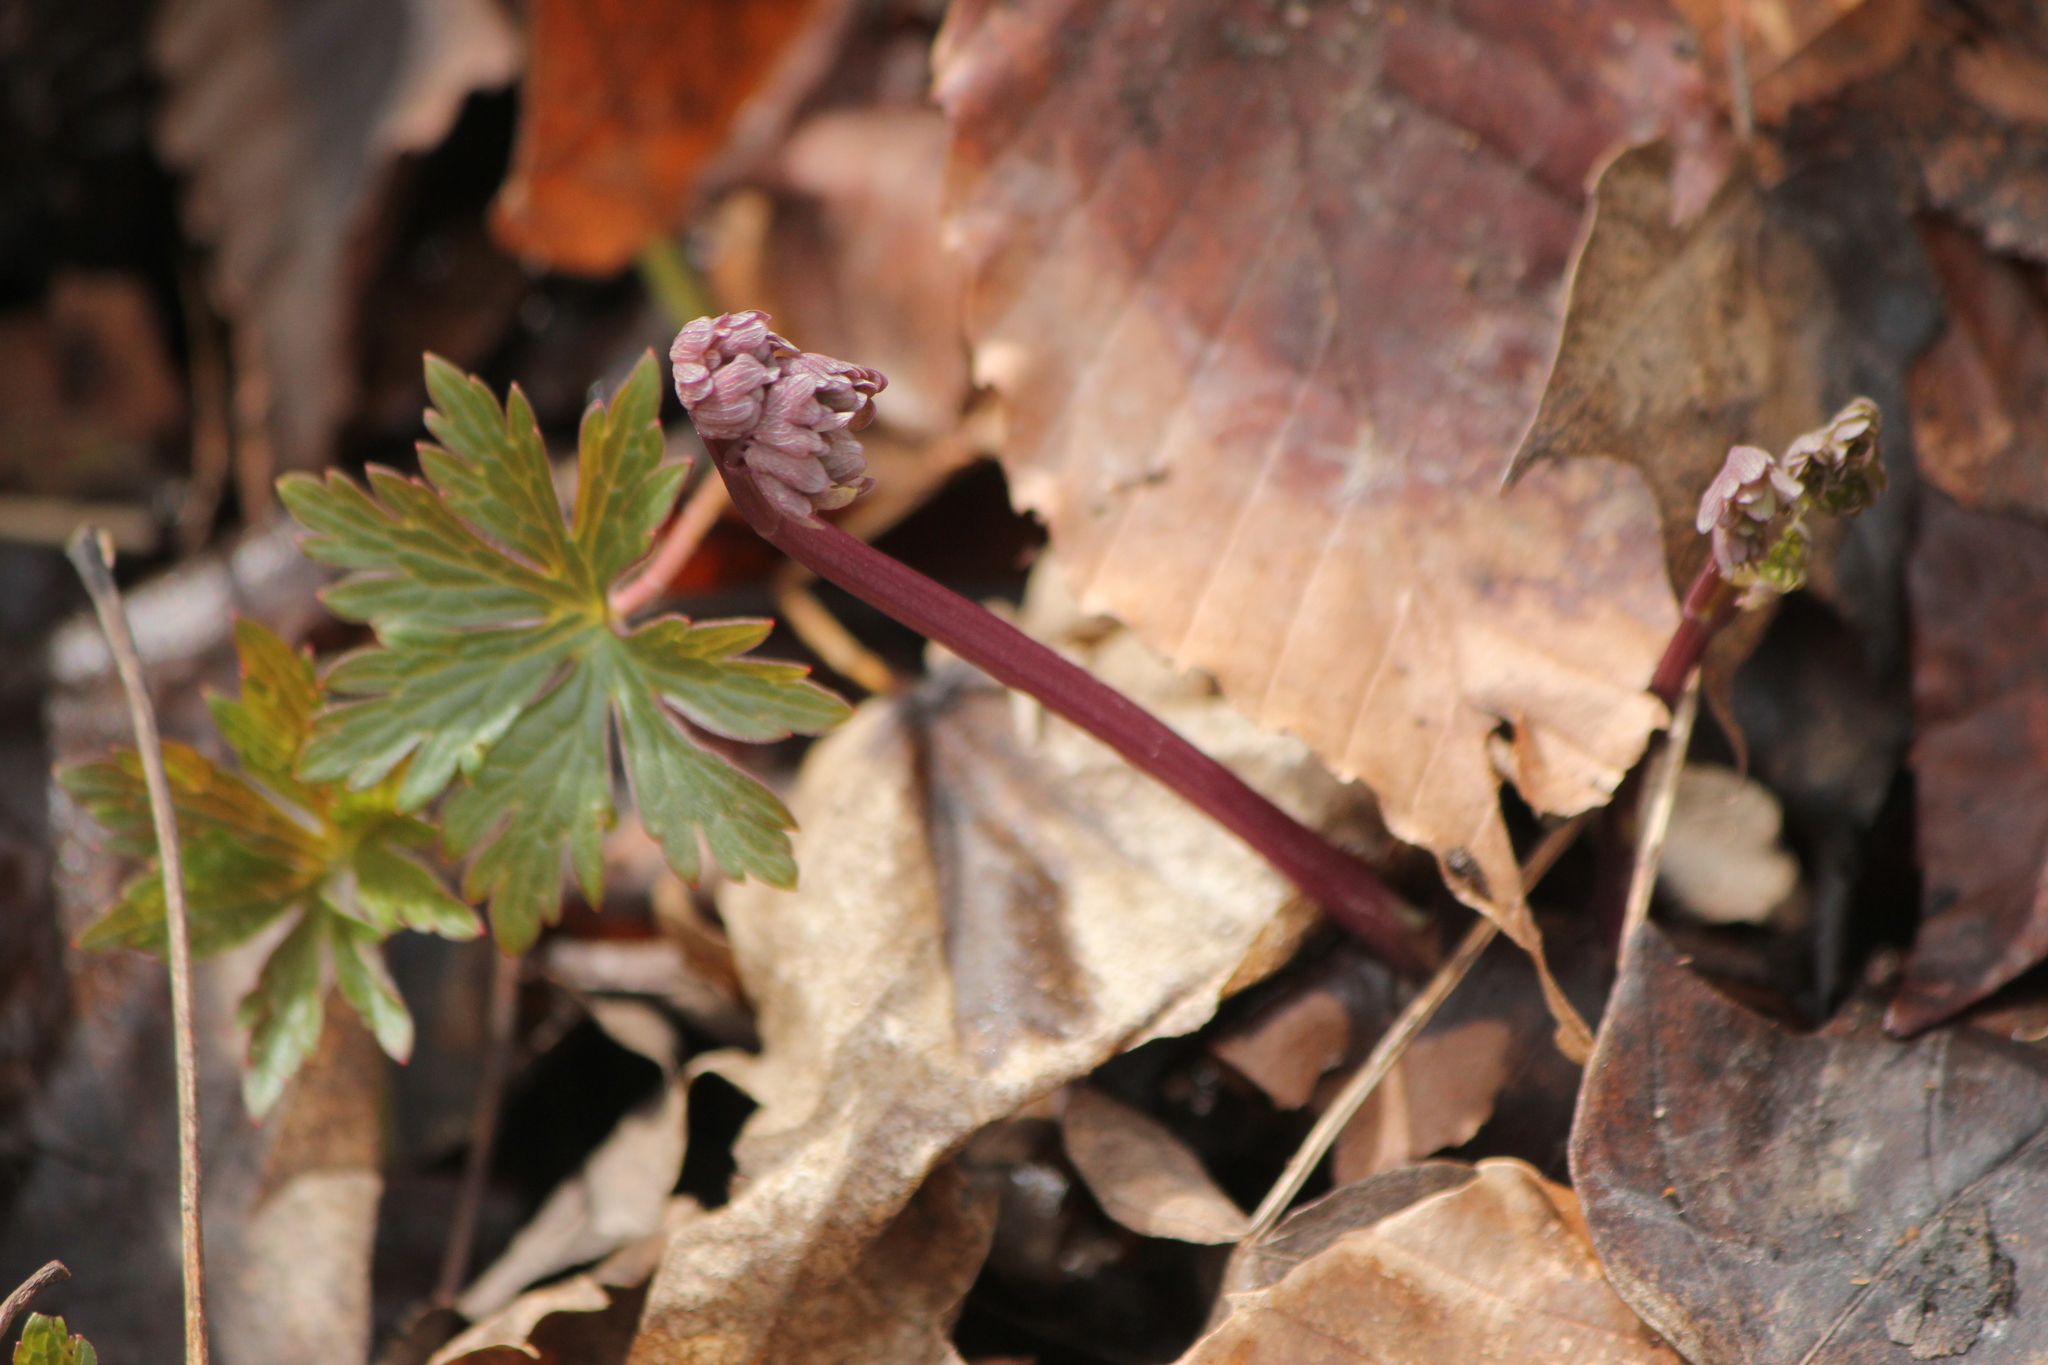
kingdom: Plantae
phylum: Tracheophyta
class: Magnoliopsida
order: Ranunculales
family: Ranunculaceae
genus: Thalictrum
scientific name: Thalictrum dioicum
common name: Early meadow-rue
